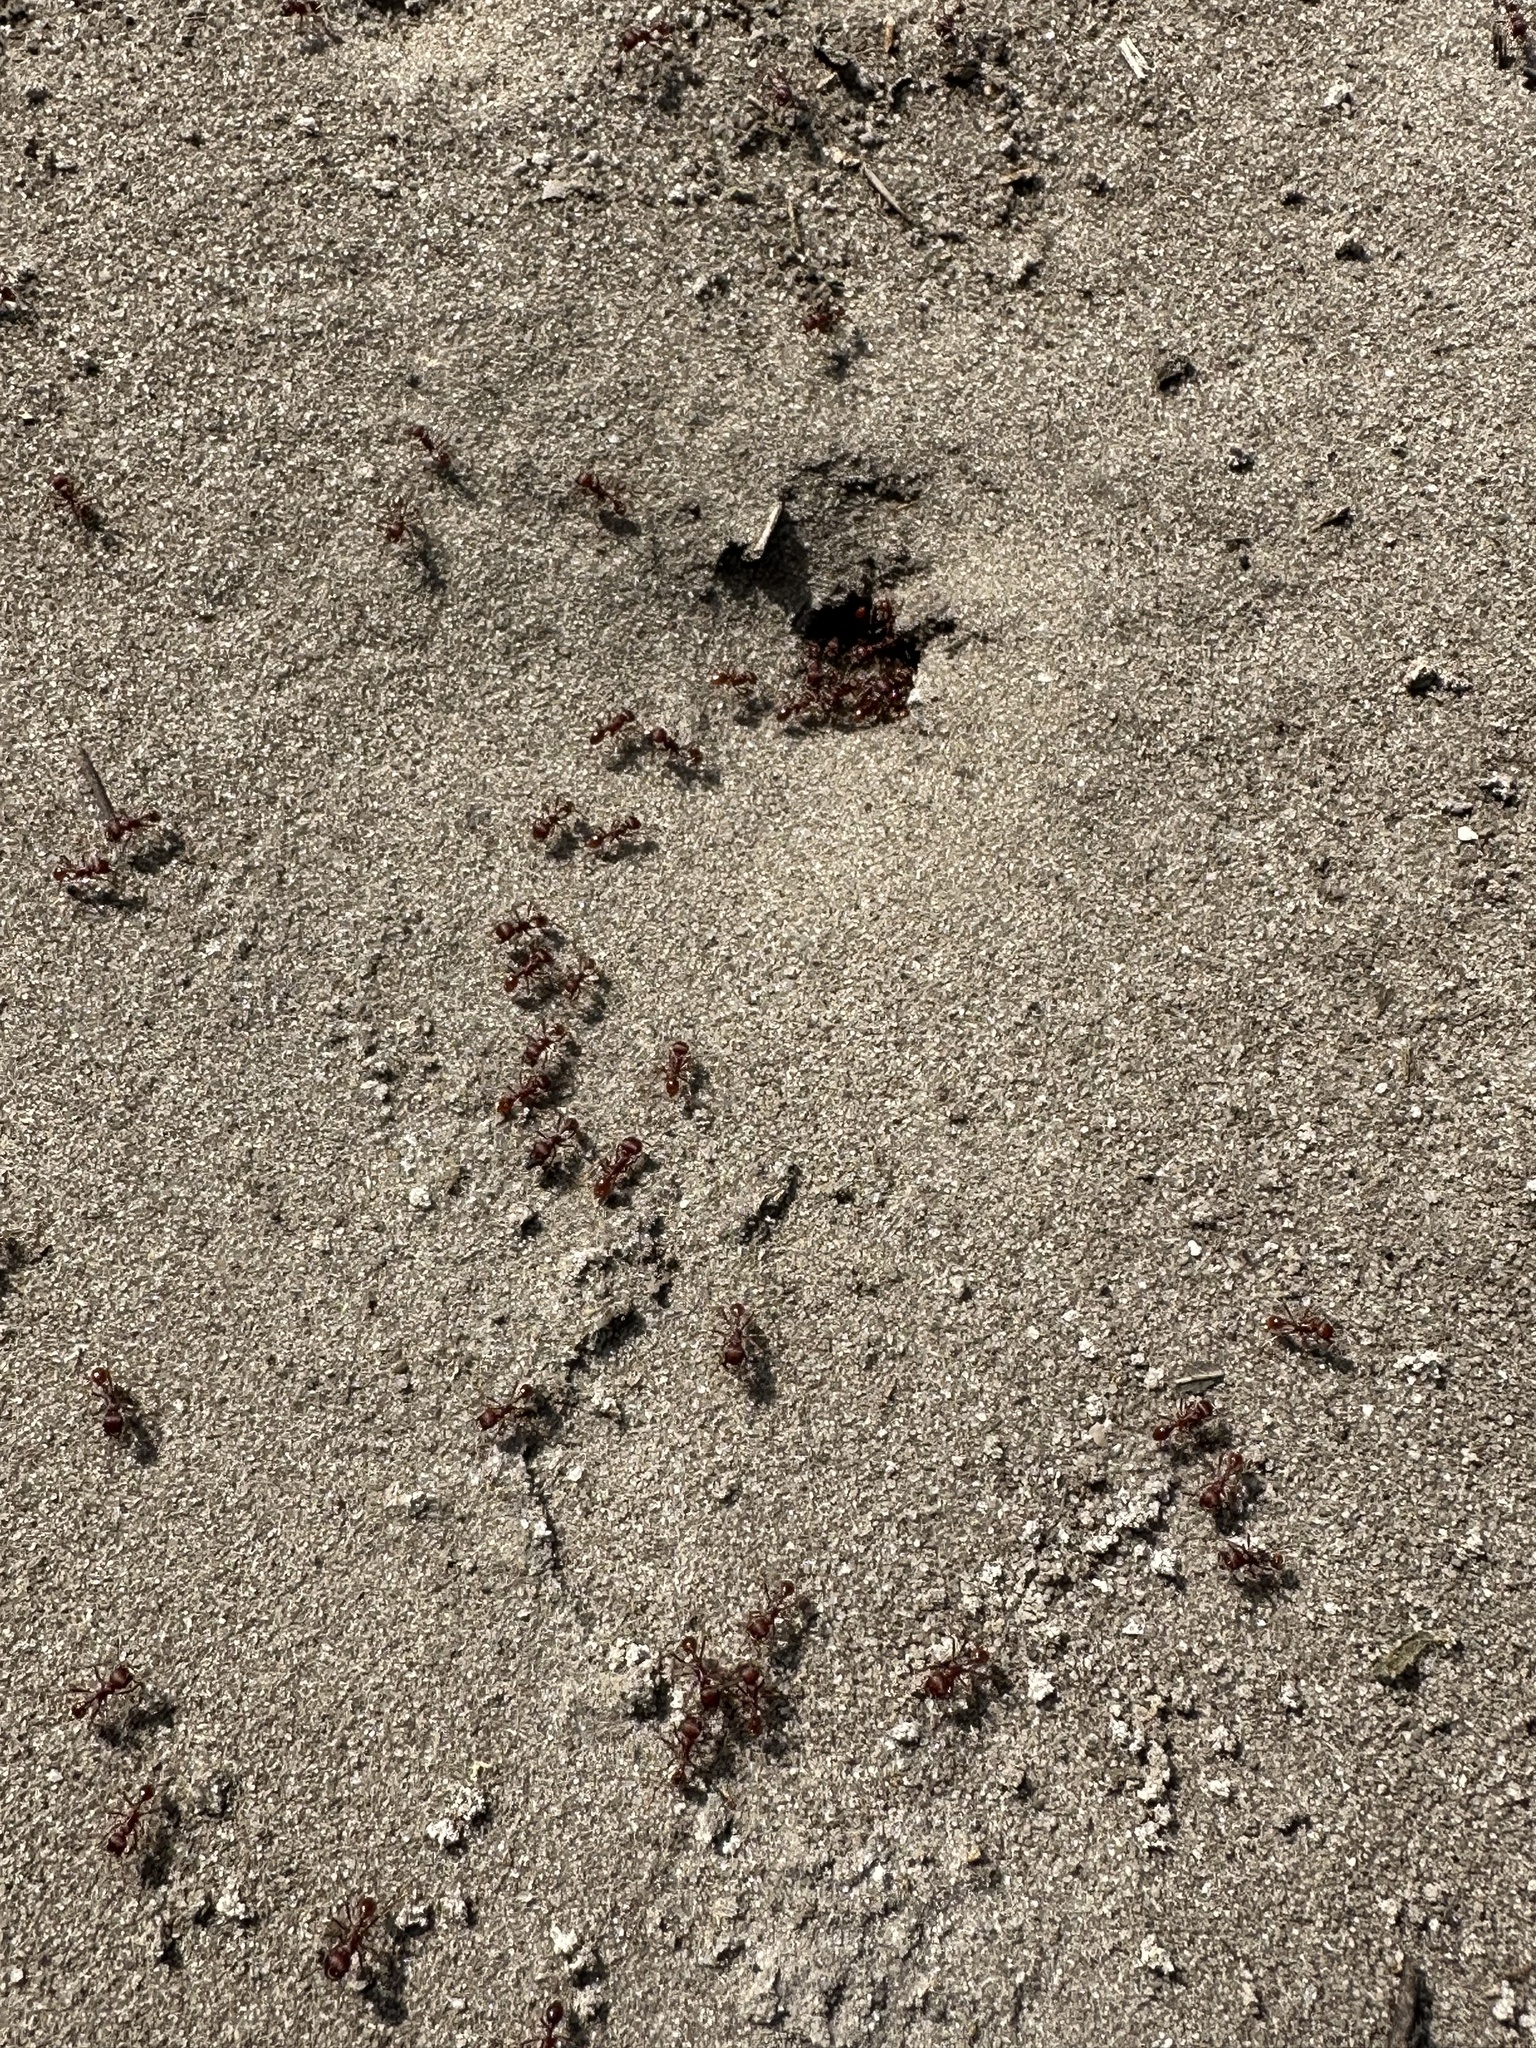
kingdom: Animalia
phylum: Arthropoda
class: Insecta
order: Hymenoptera
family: Formicidae
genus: Pogonomyrmex
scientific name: Pogonomyrmex badius
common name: Florida harvester ant
